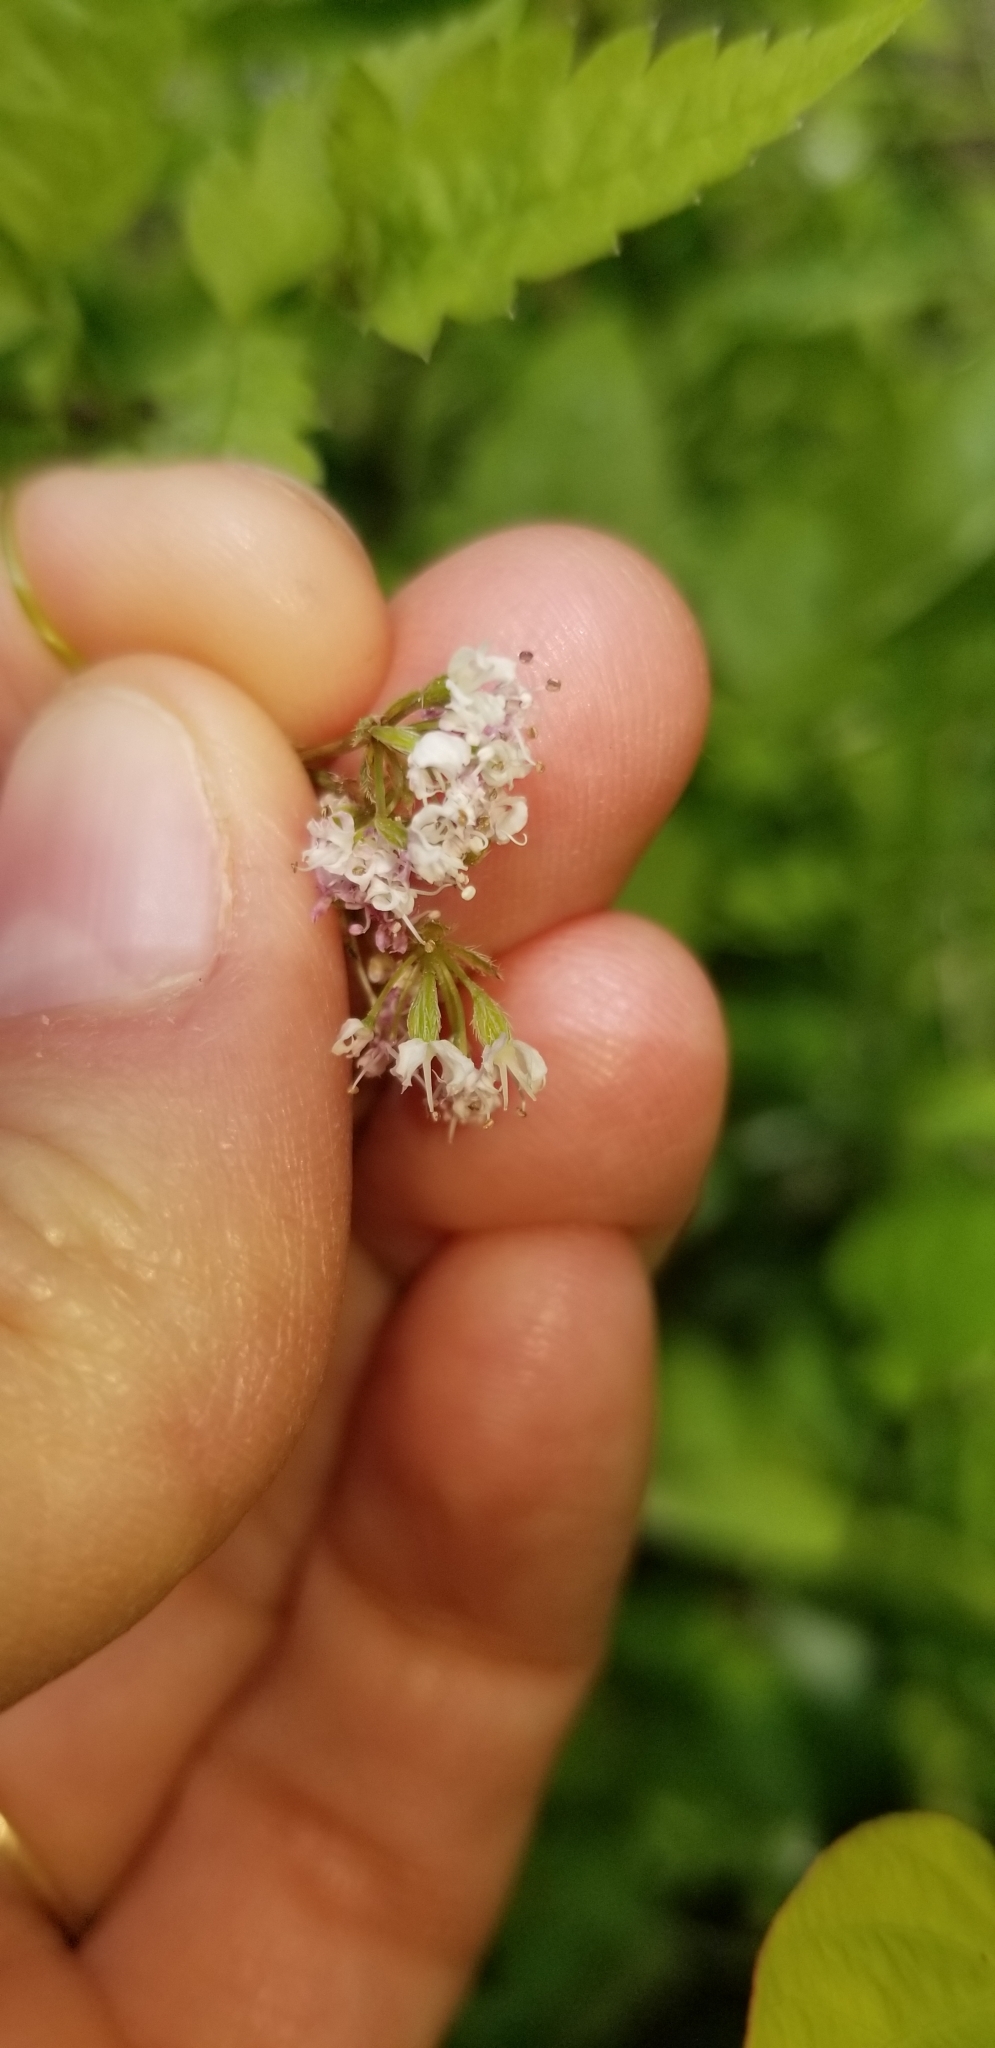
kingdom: Plantae
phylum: Tracheophyta
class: Magnoliopsida
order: Apiales
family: Apiaceae
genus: Osmorhiza
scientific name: Osmorhiza longistylis
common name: Smooth sweet cicely
